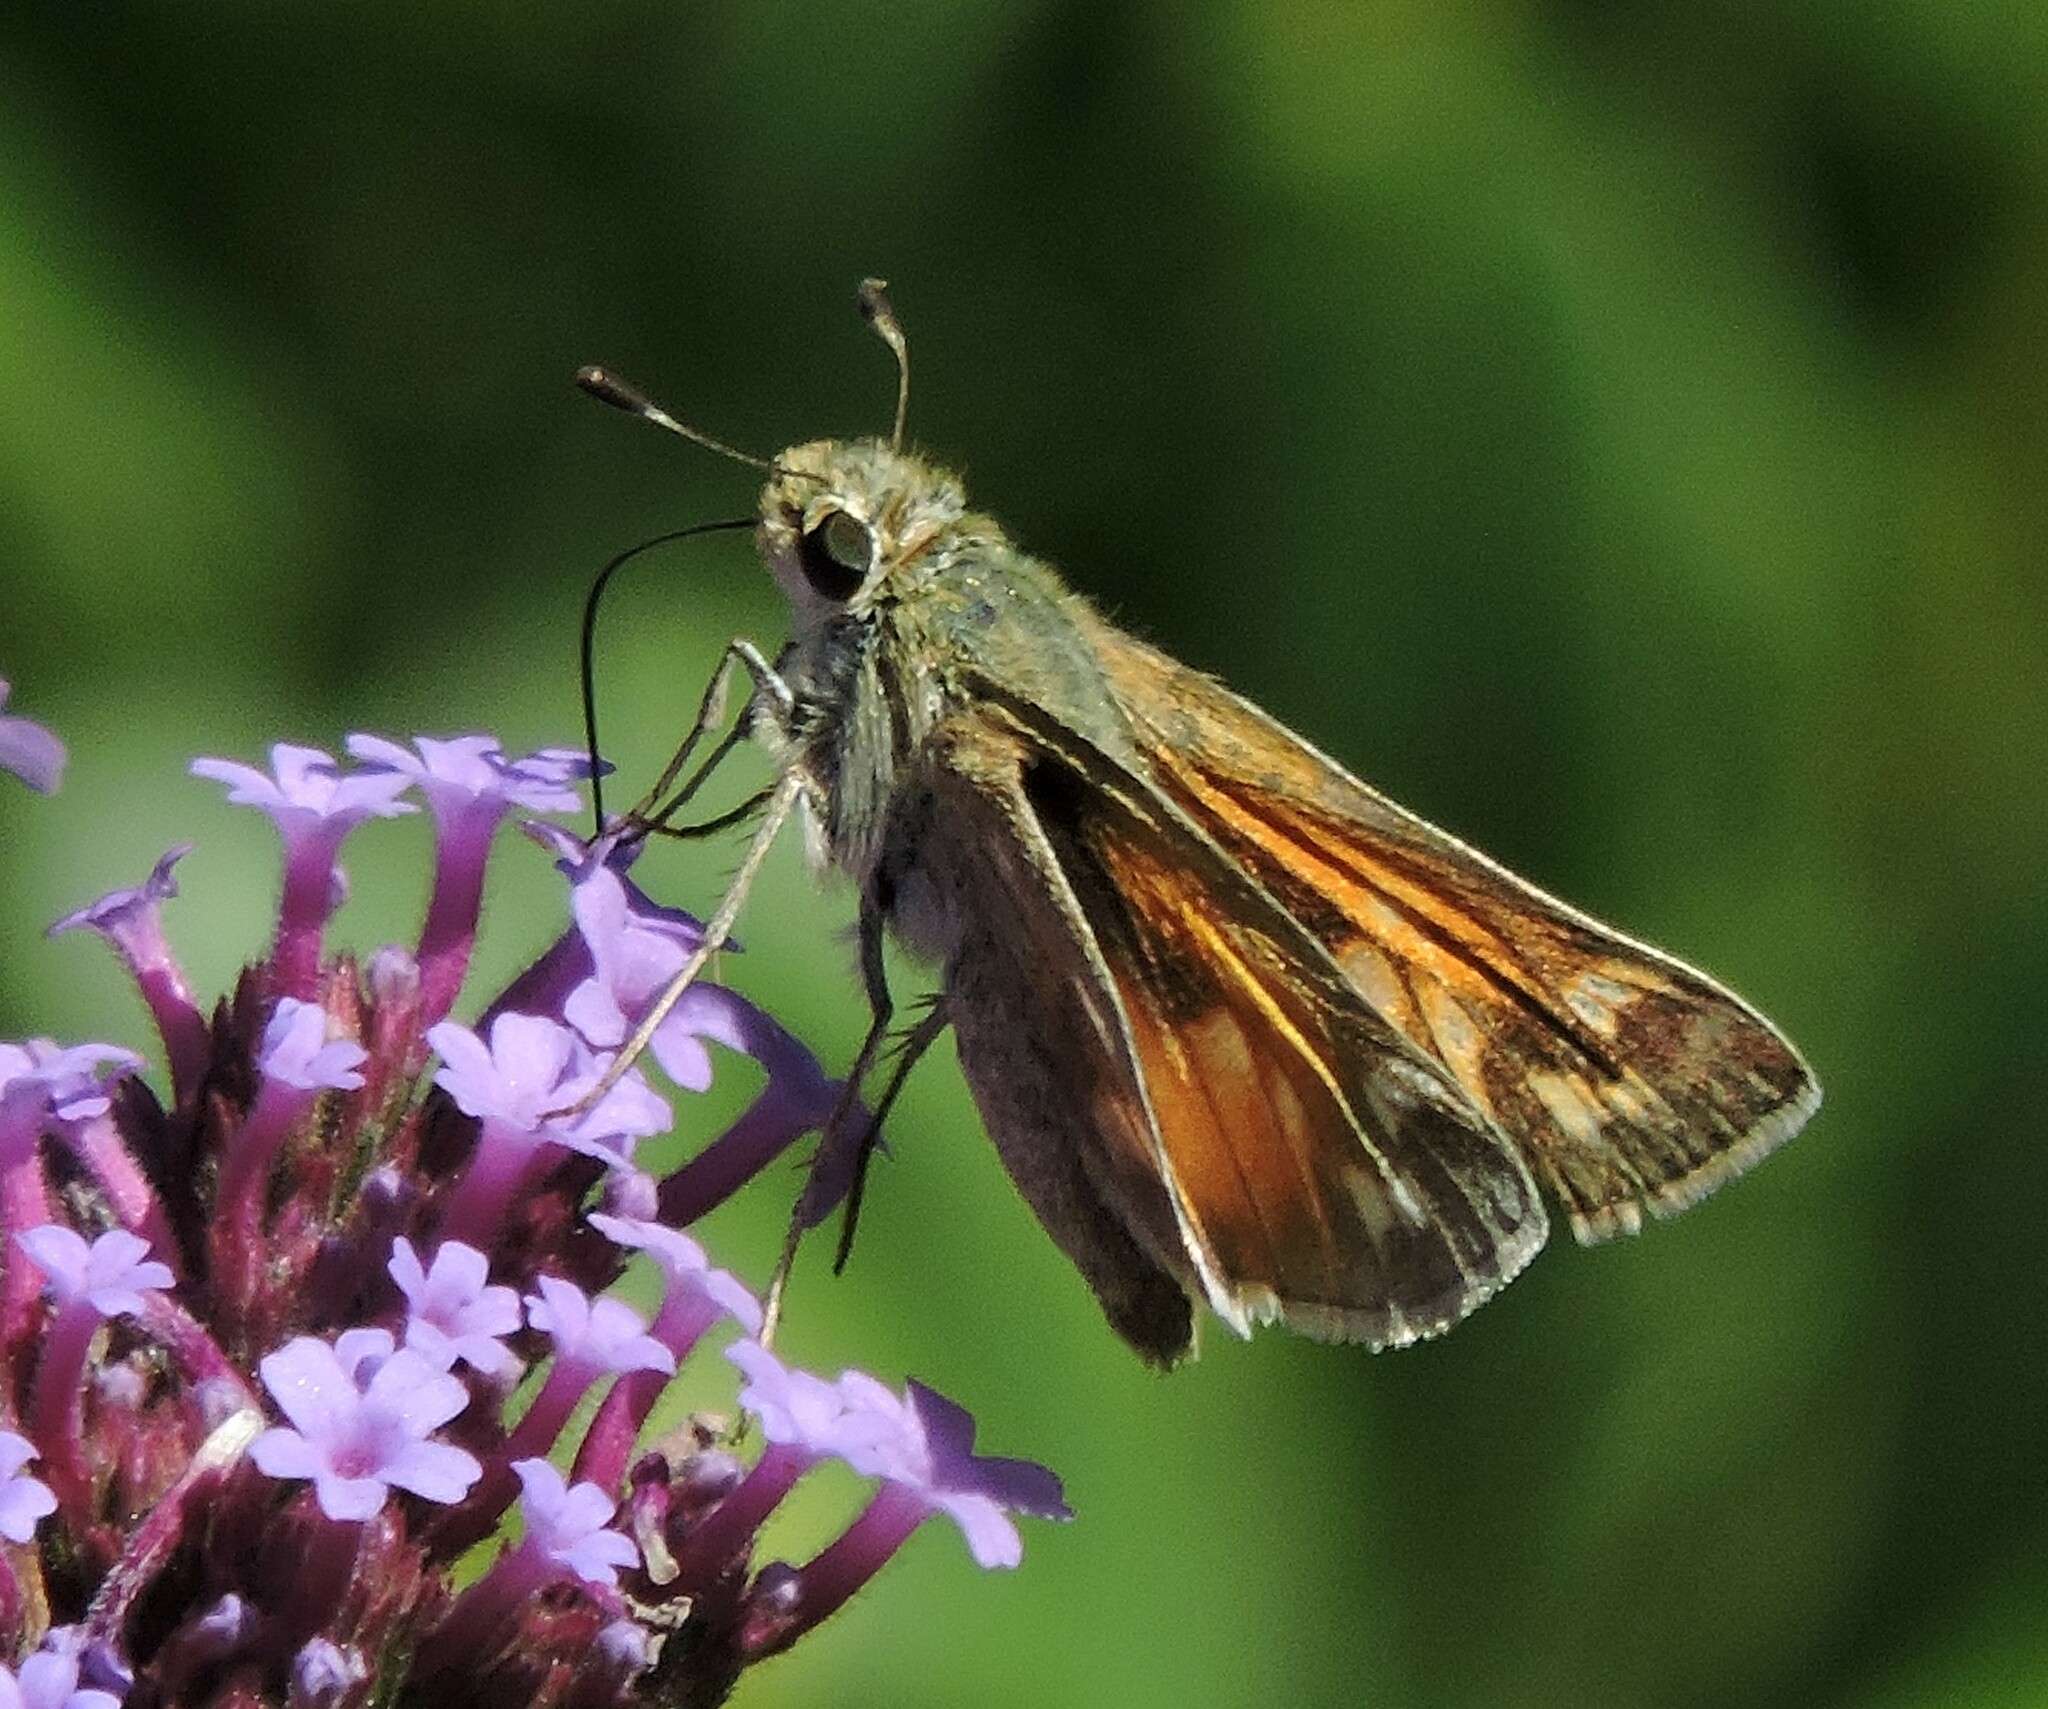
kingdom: Animalia
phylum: Arthropoda
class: Insecta
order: Lepidoptera
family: Hesperiidae
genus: Atalopedes
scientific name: Atalopedes campestris
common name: Sachem
